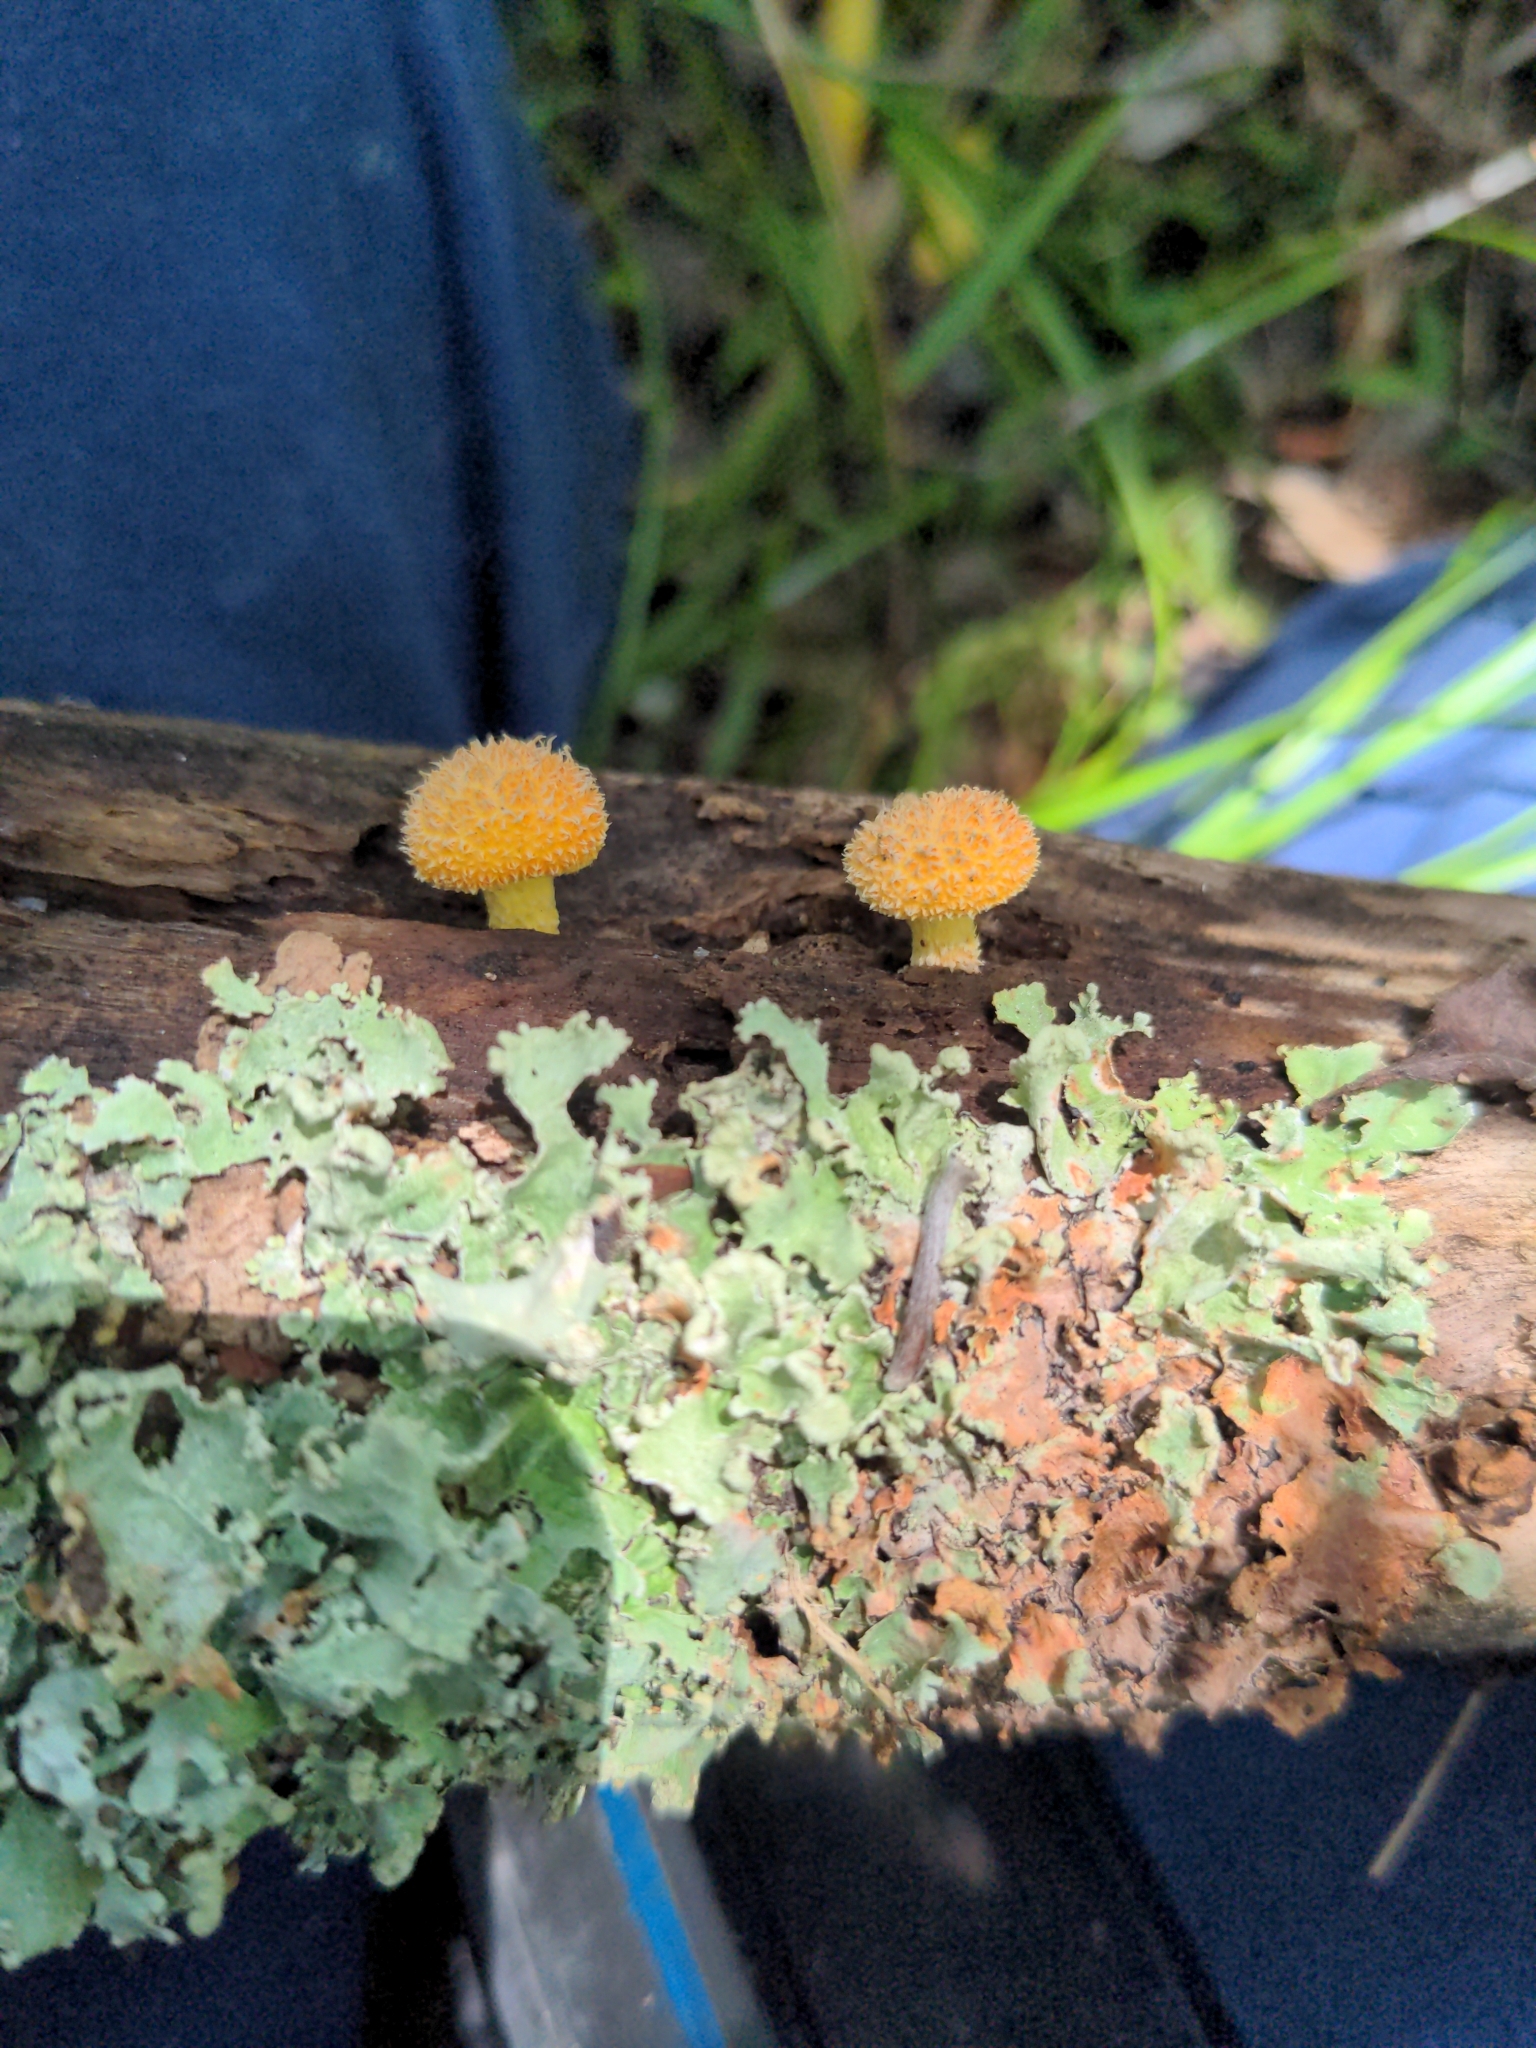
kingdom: Fungi
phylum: Basidiomycota
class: Agaricomycetes
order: Agaricales
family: Physalacriaceae
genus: Cyptotrama
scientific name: Cyptotrama asprata
